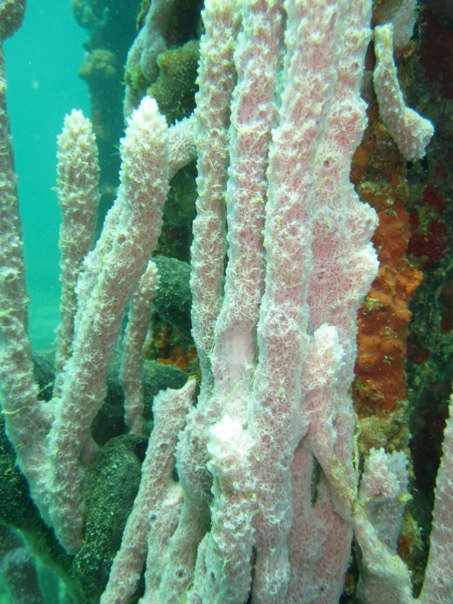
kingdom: Animalia
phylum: Porifera
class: Demospongiae
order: Haplosclerida
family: Niphatidae
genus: Niphates
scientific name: Niphates erecta
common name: Lavender rope sponge
